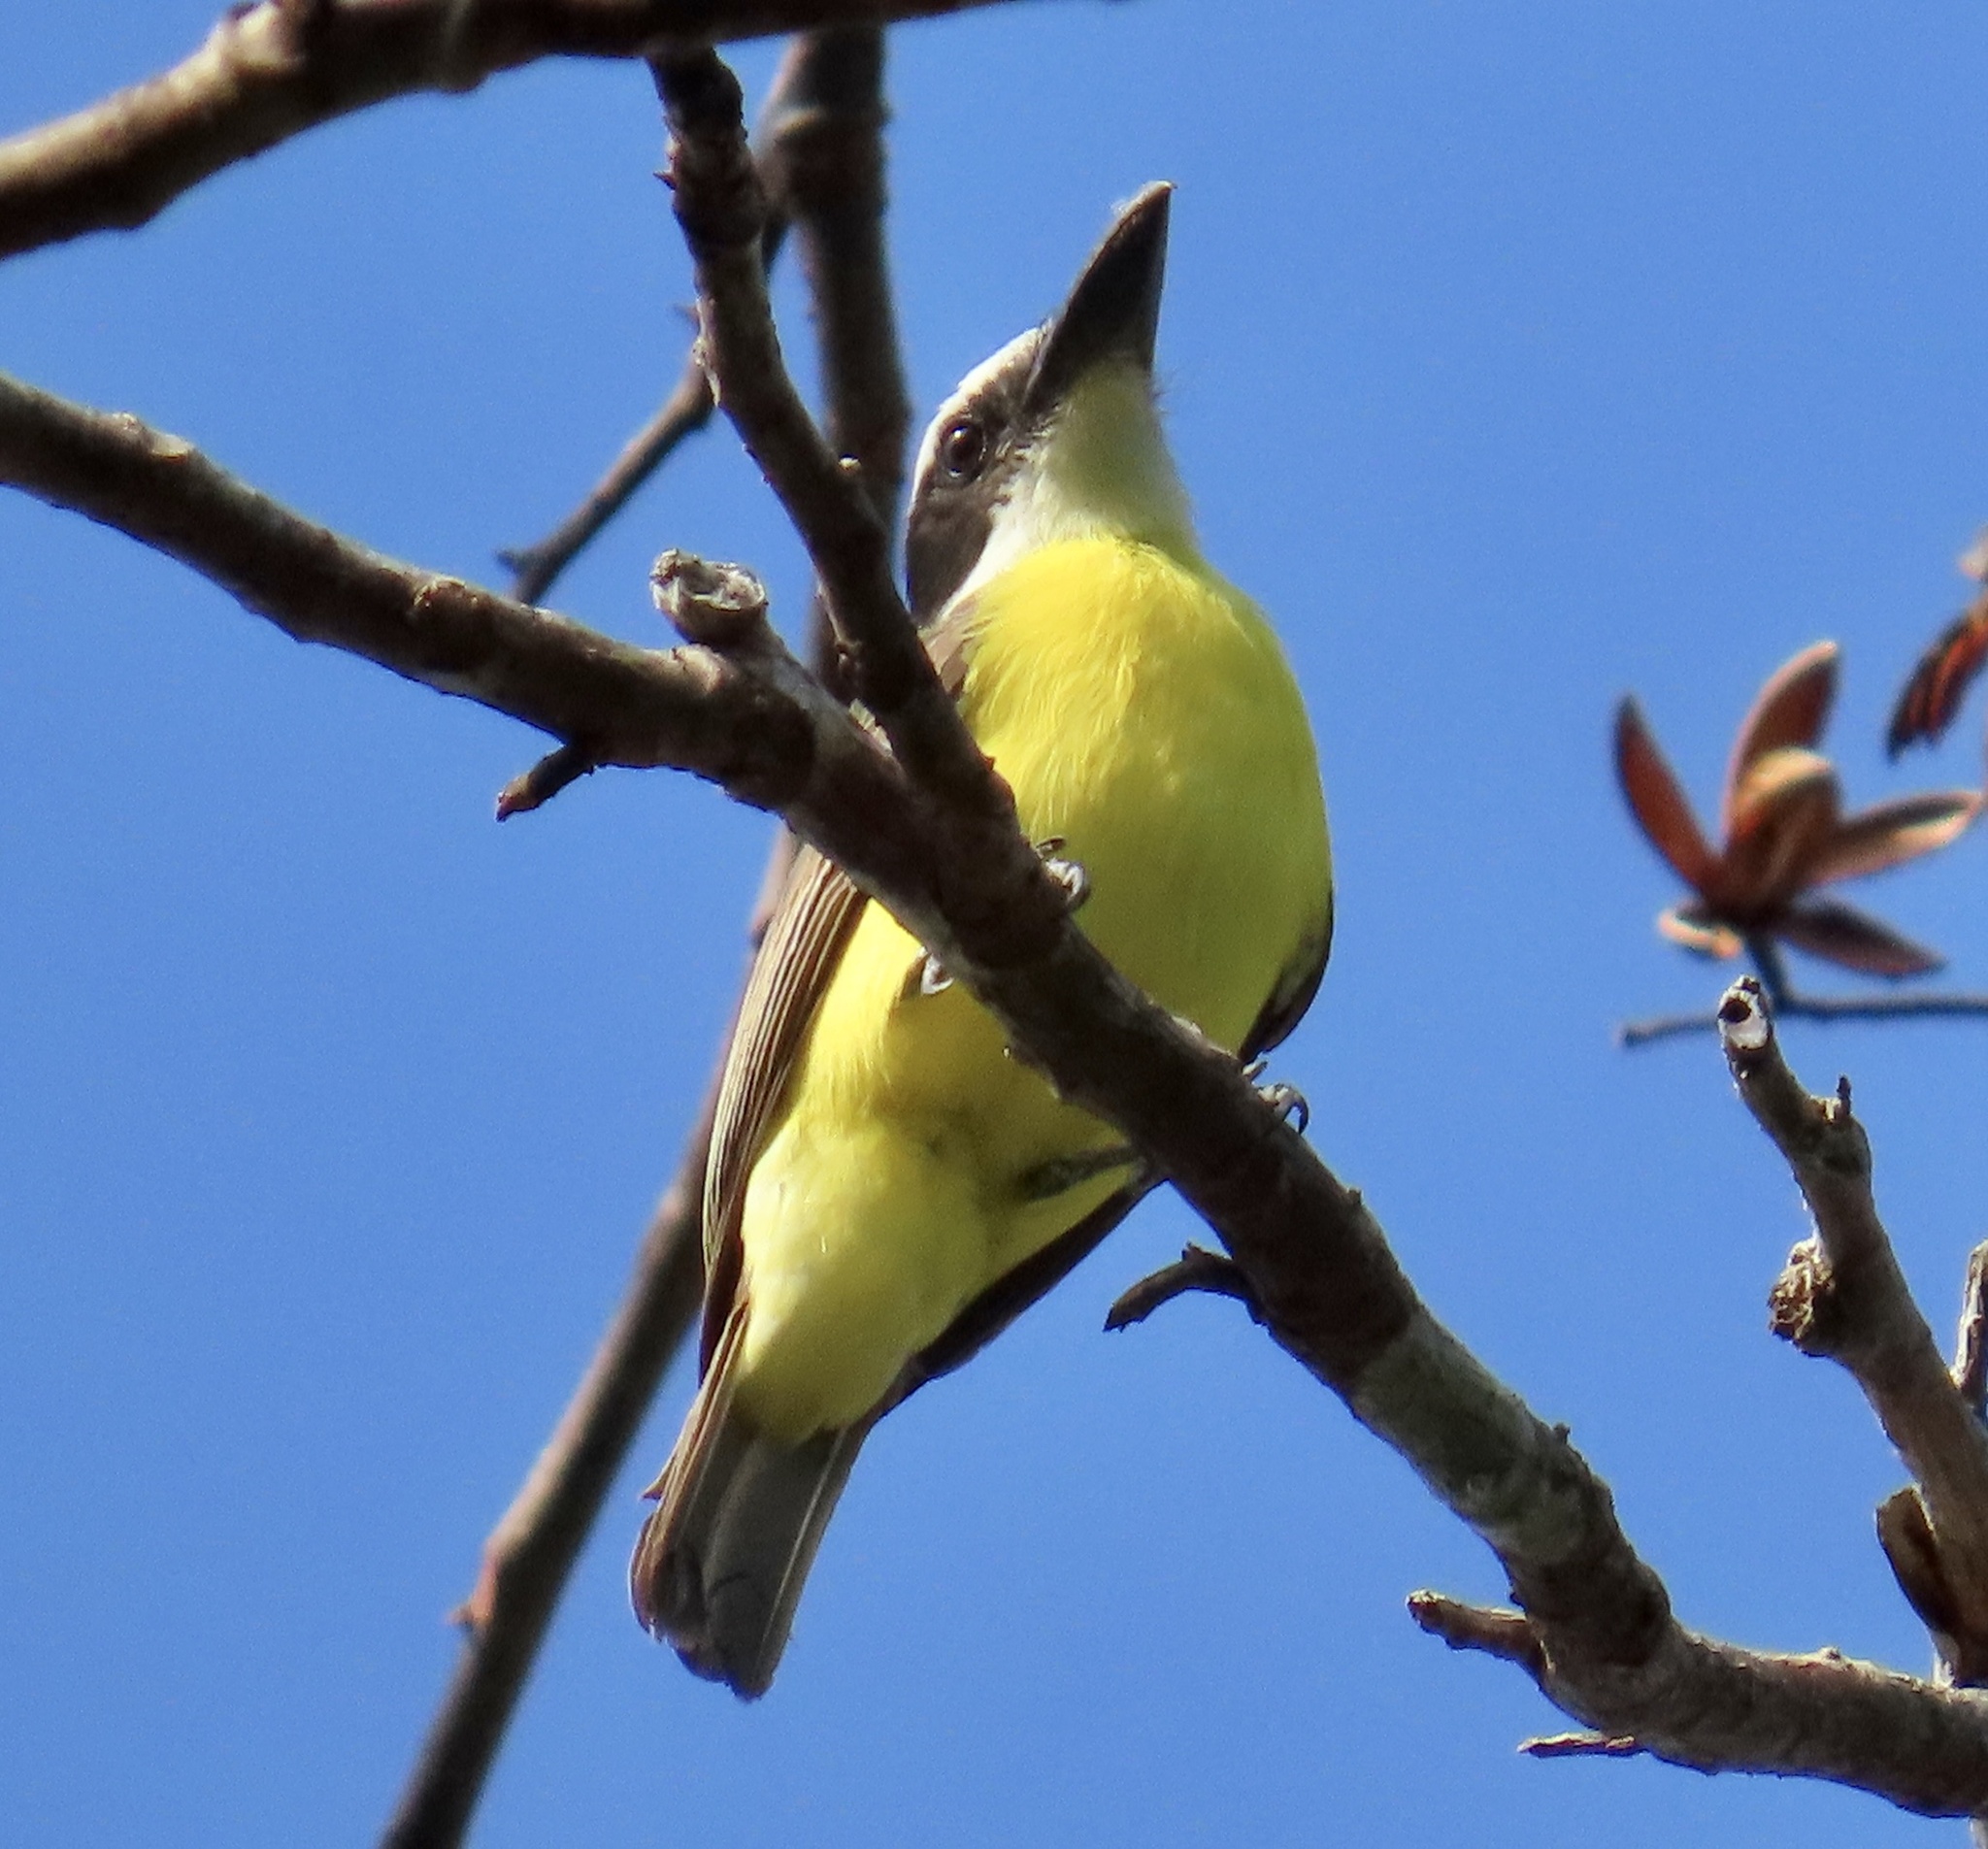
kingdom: Animalia
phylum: Chordata
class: Aves
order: Passeriformes
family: Tyrannidae
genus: Megarynchus
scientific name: Megarynchus pitangua
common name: Boat-billed flycatcher
